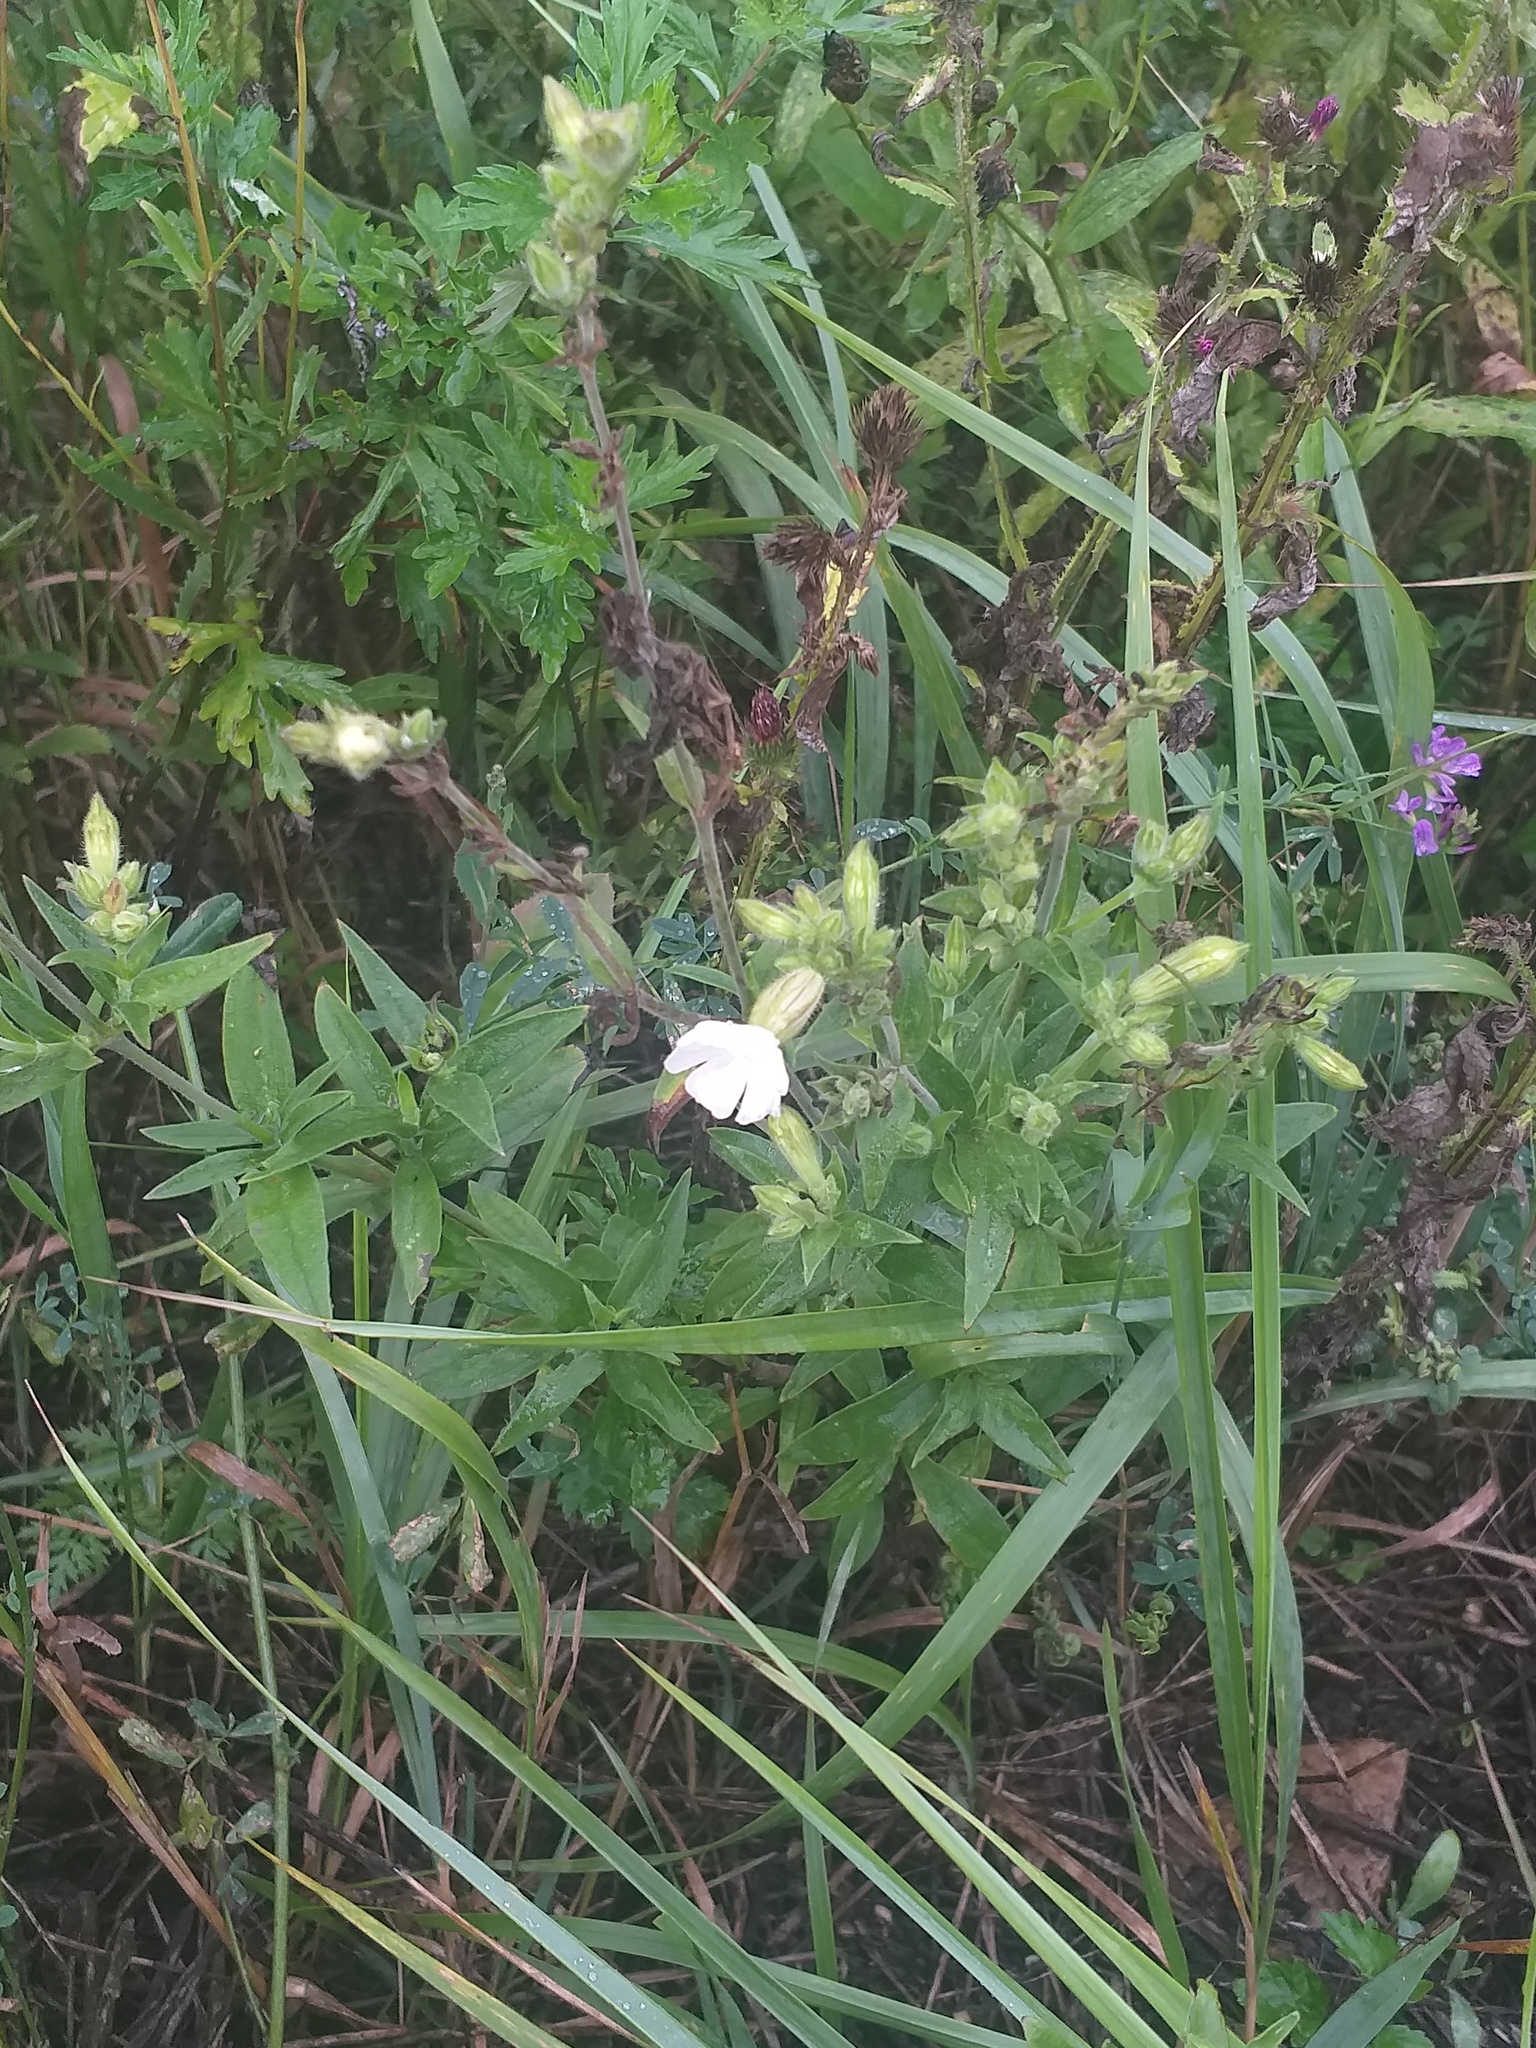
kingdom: Plantae
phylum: Tracheophyta
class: Magnoliopsida
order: Caryophyllales
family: Caryophyllaceae
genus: Silene
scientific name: Silene latifolia
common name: White campion
